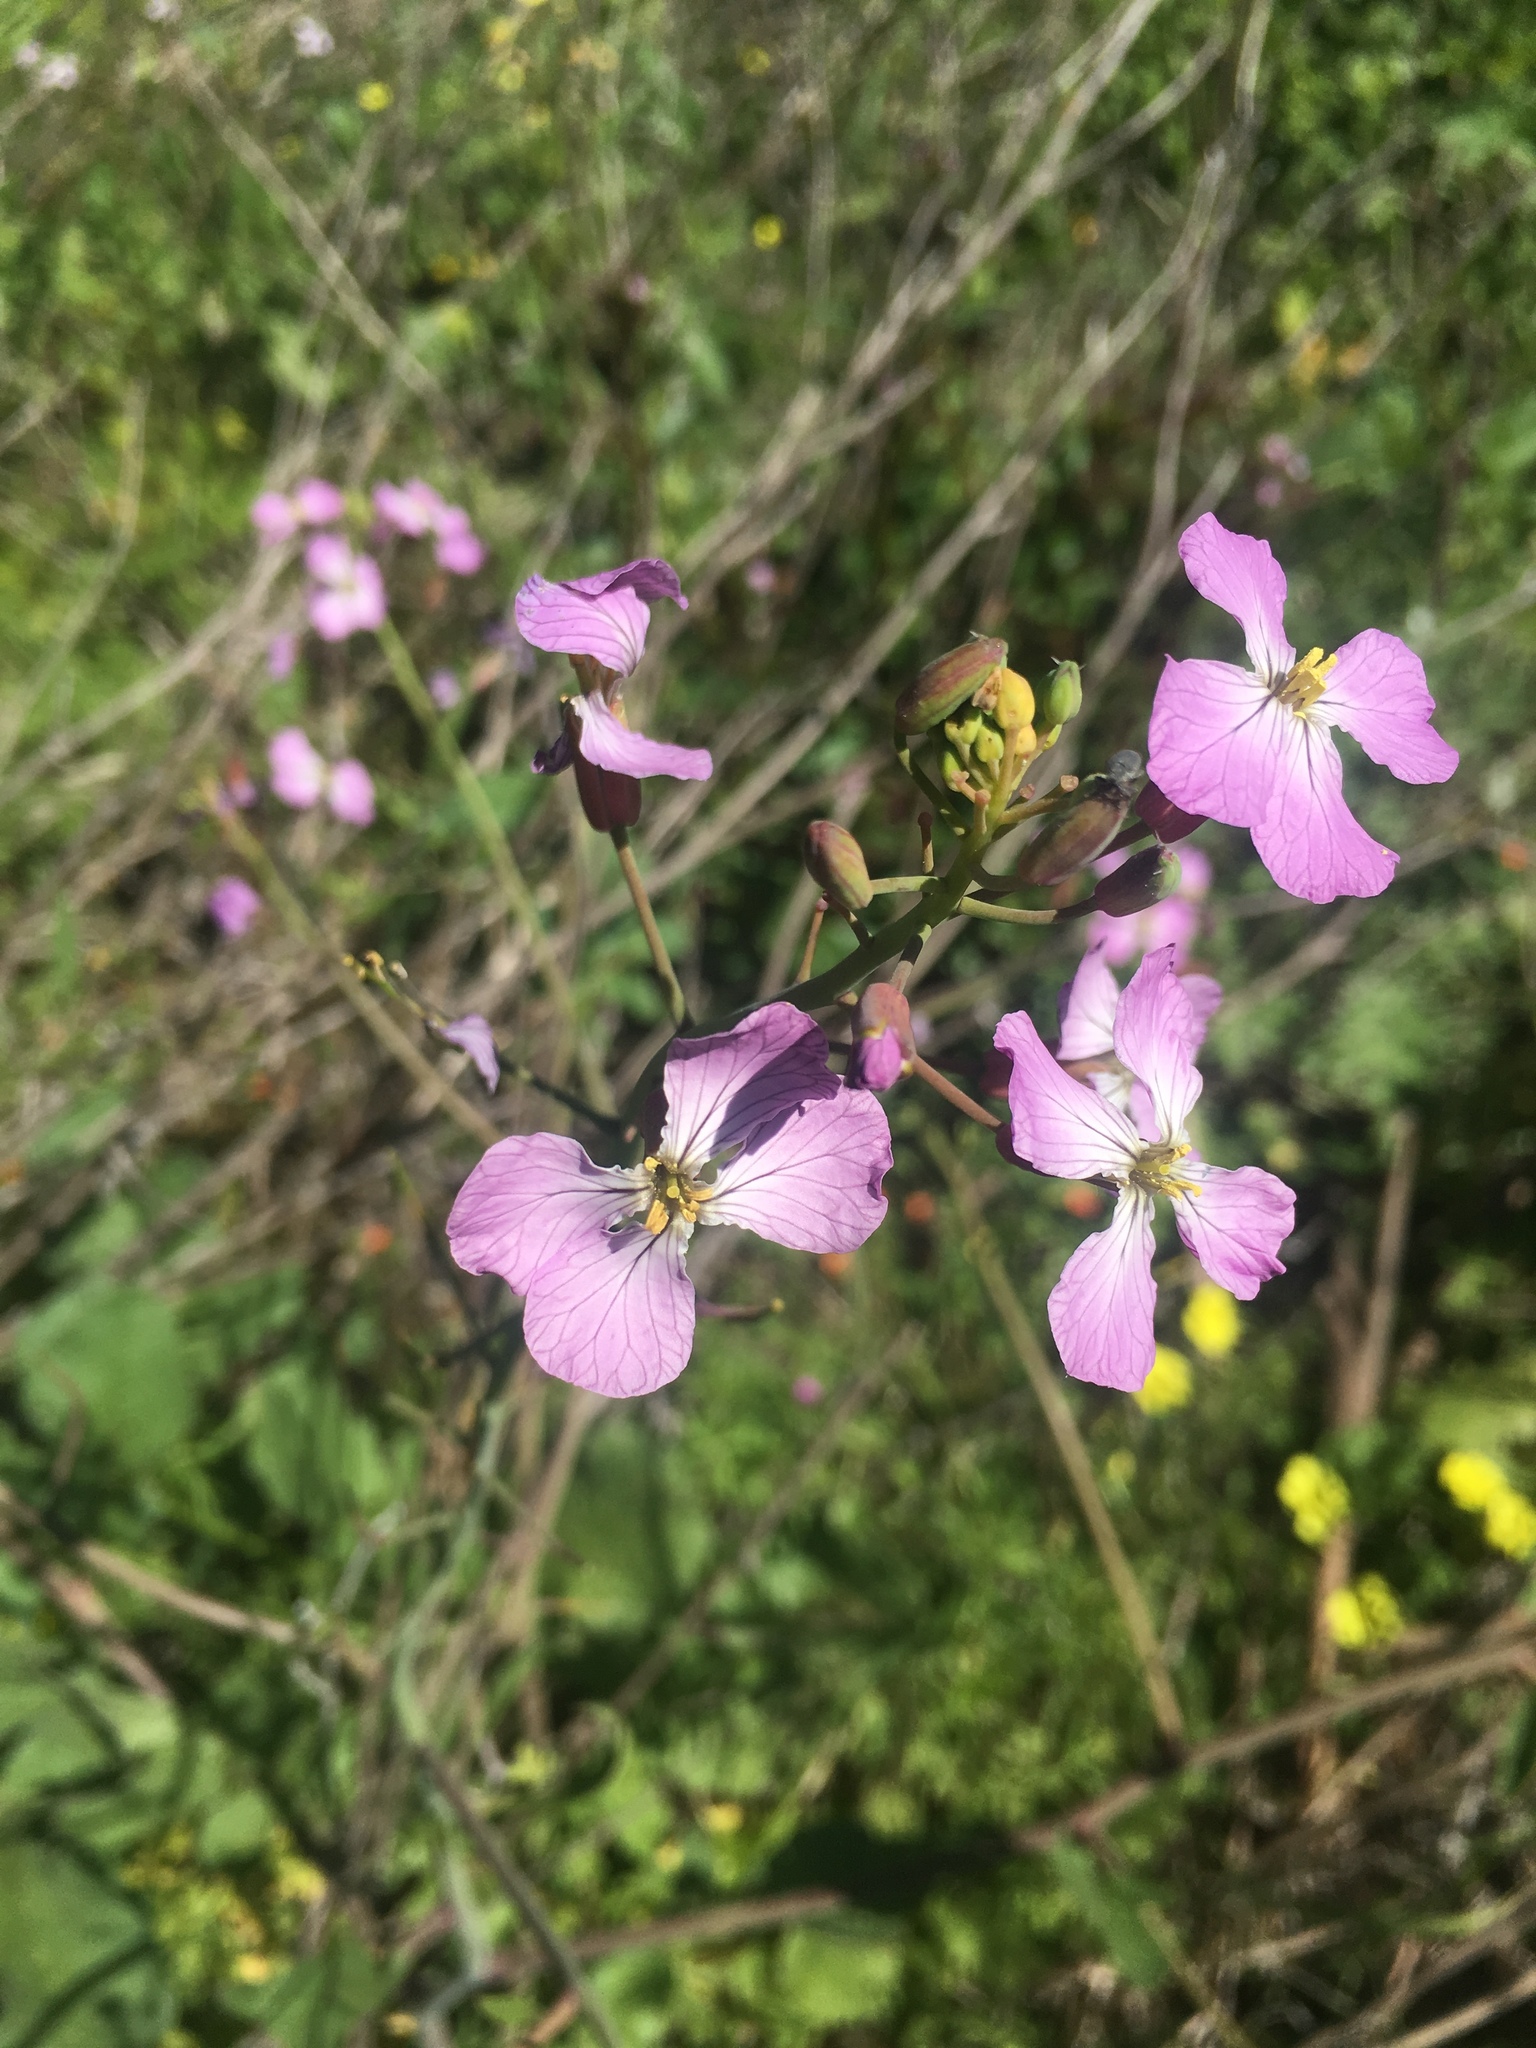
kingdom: Plantae
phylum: Tracheophyta
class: Magnoliopsida
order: Brassicales
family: Brassicaceae
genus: Raphanus
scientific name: Raphanus sativus
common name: Cultivated radish
